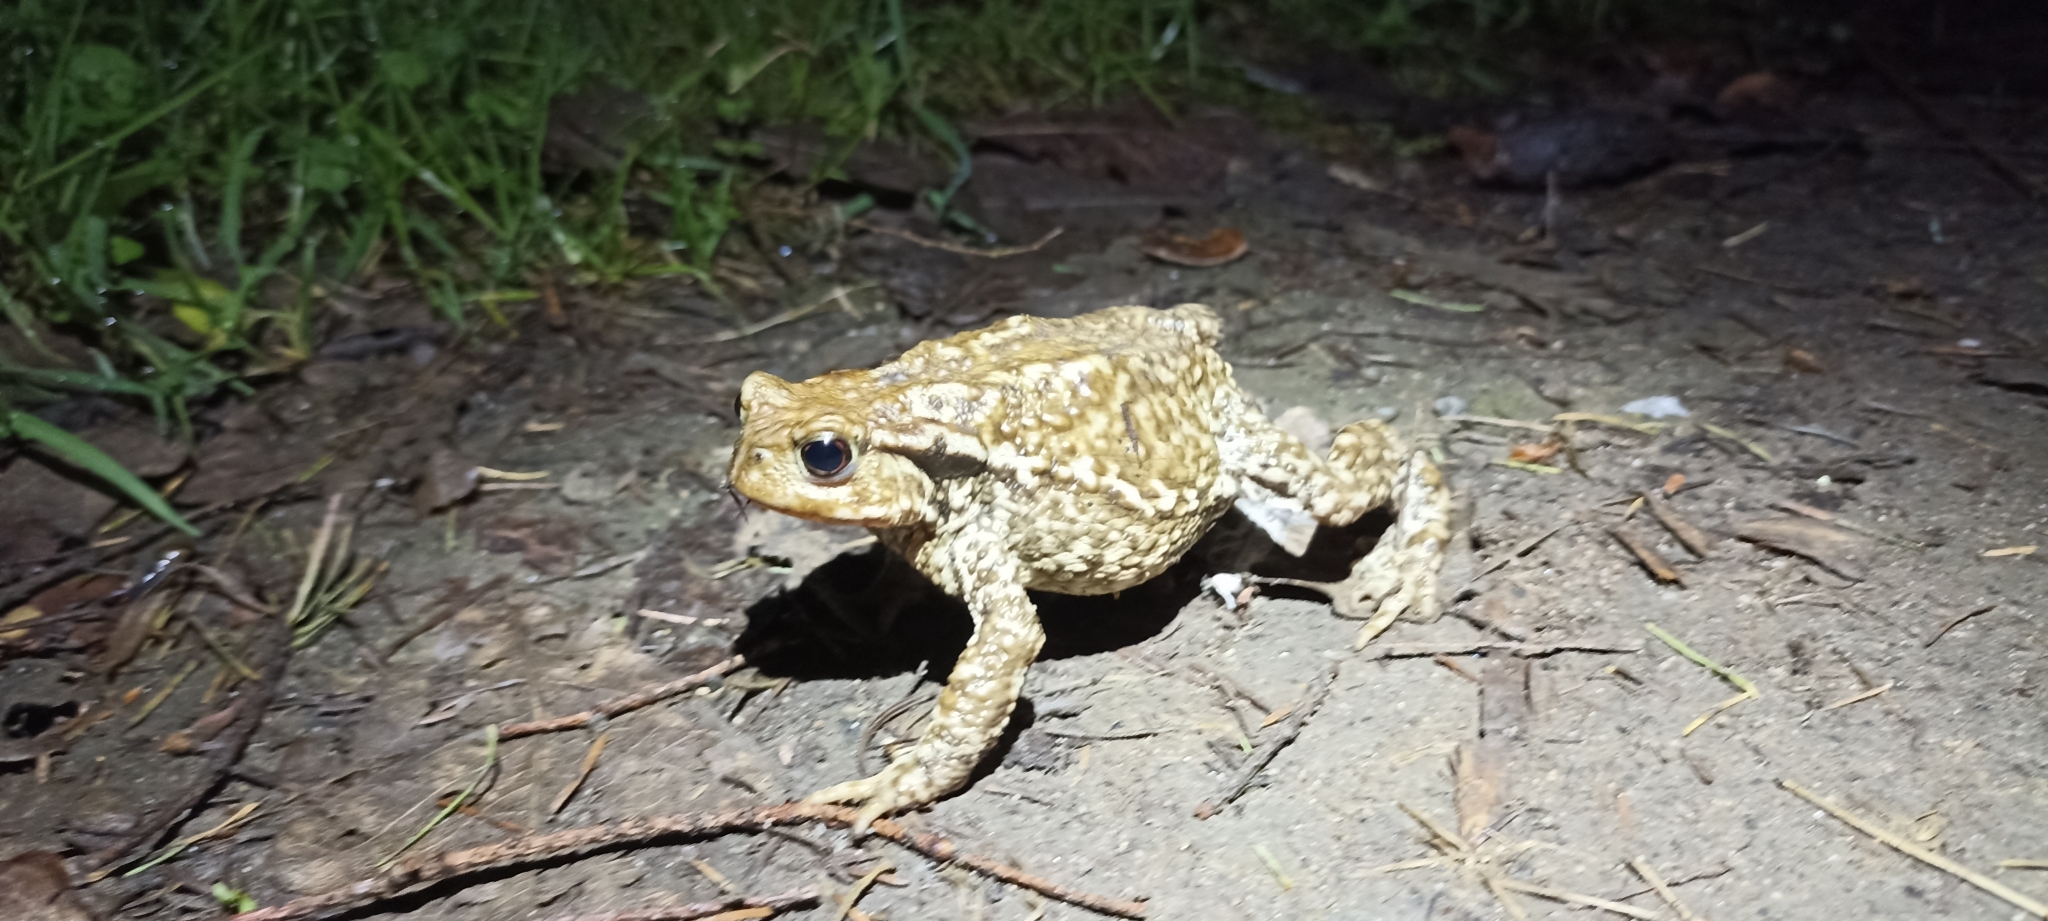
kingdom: Animalia
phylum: Chordata
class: Amphibia
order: Anura
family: Bufonidae
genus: Bufo
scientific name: Bufo spinosus
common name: Western common toad
